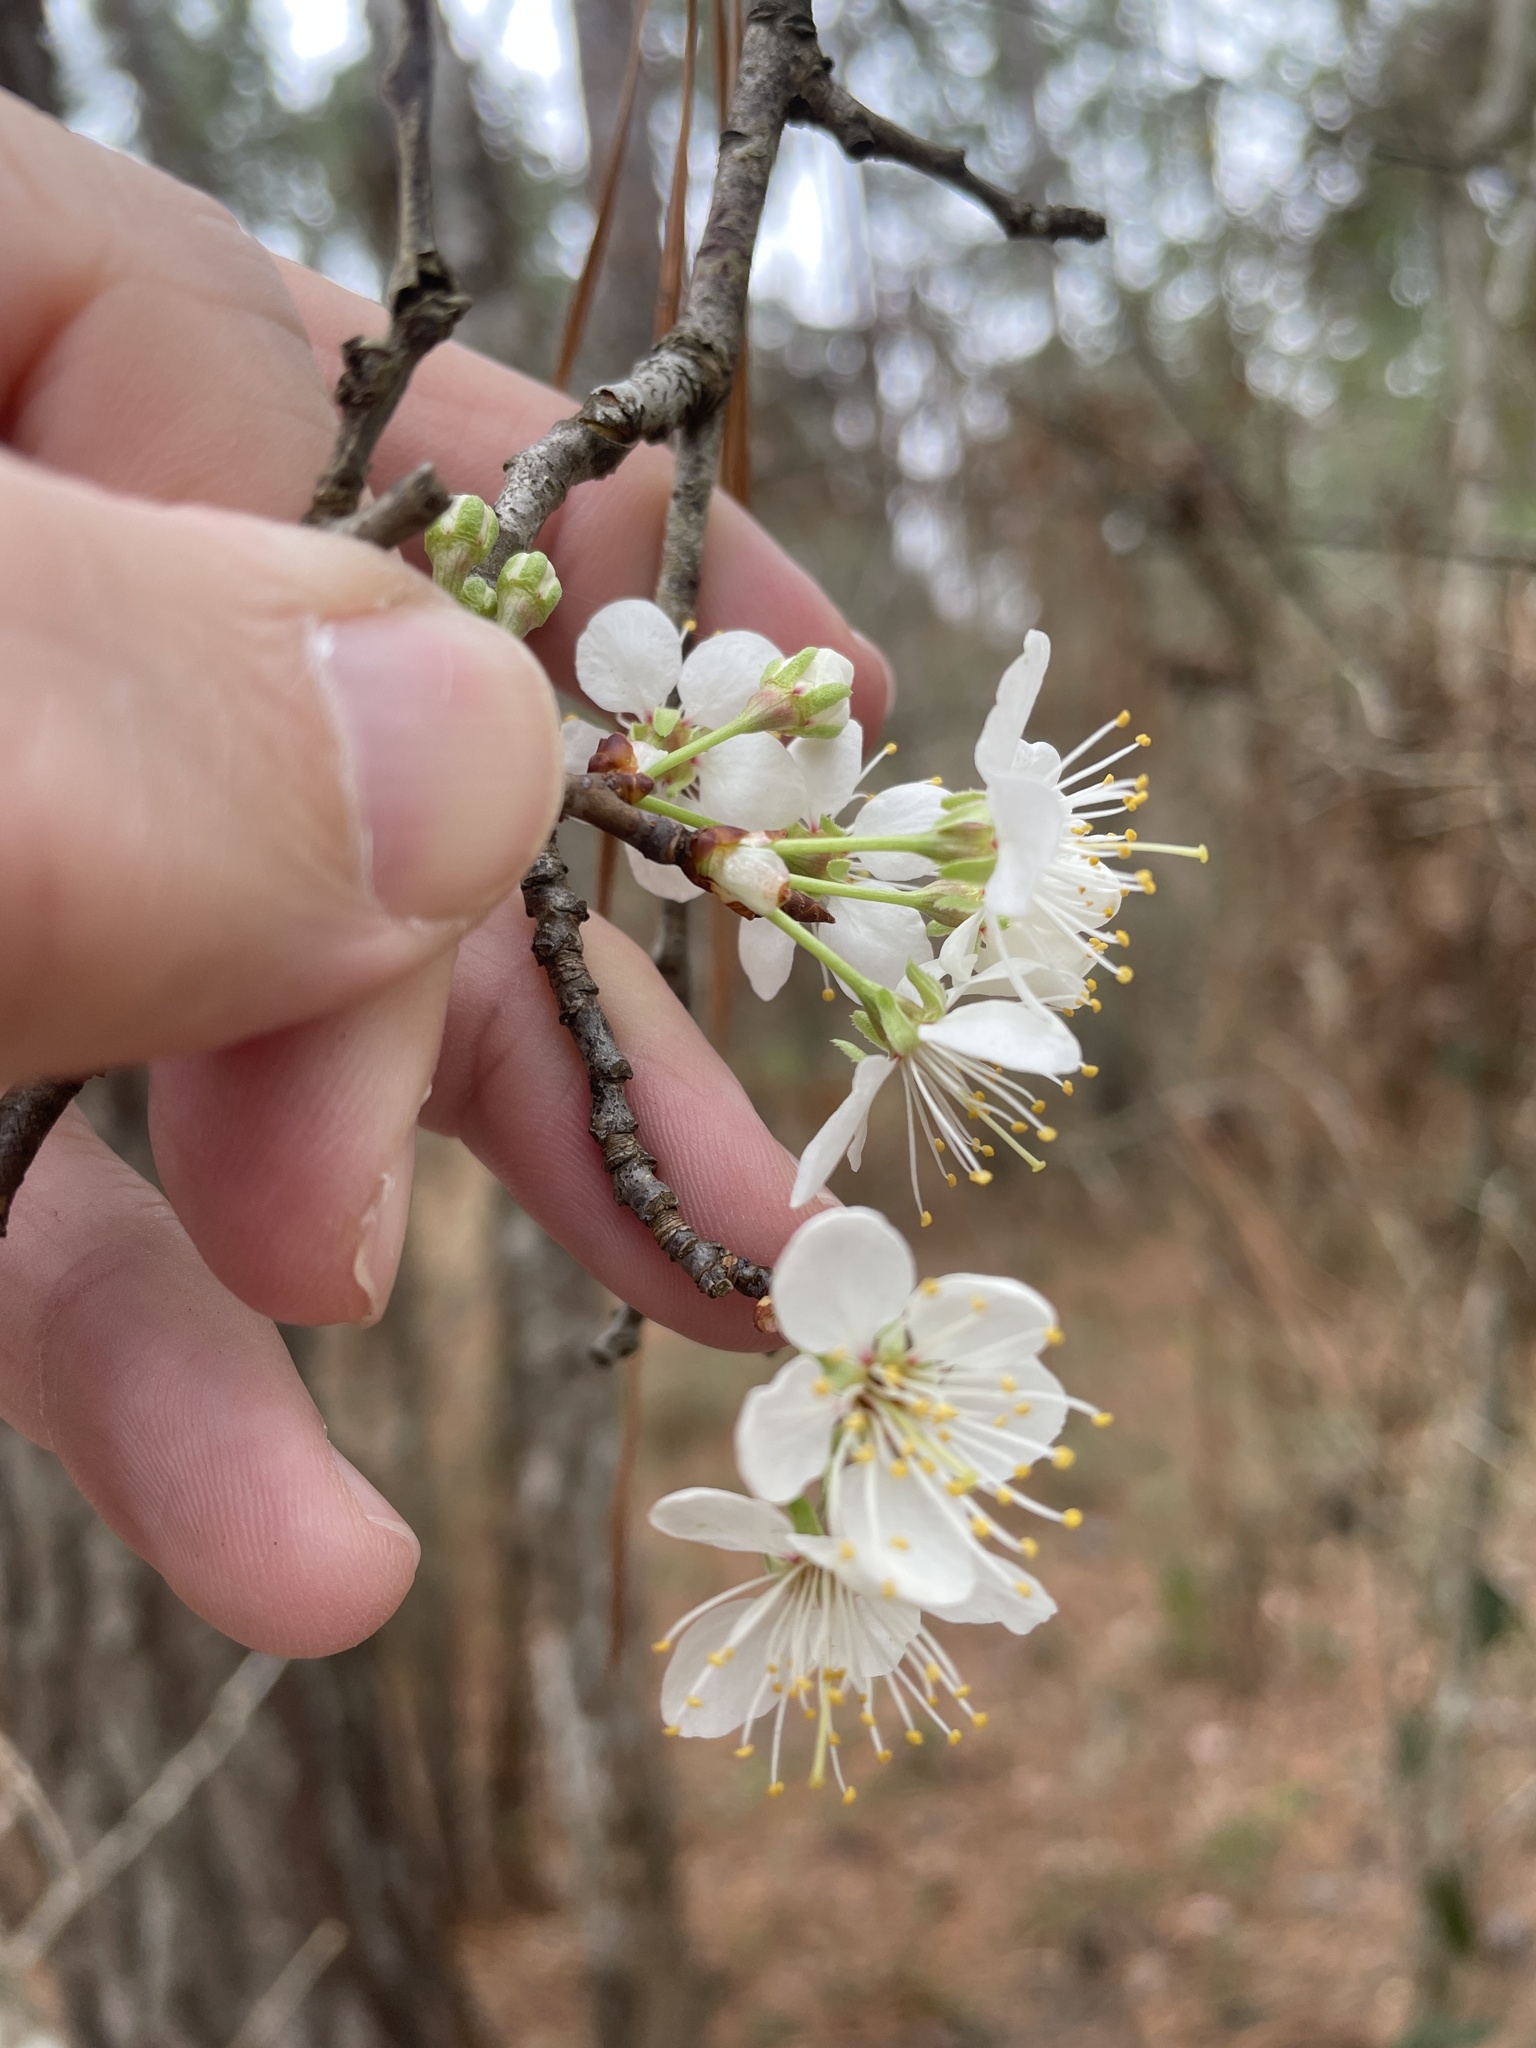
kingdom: Plantae
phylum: Tracheophyta
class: Magnoliopsida
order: Rosales
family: Rosaceae
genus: Prunus
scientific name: Prunus mexicana
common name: Mexican plum
